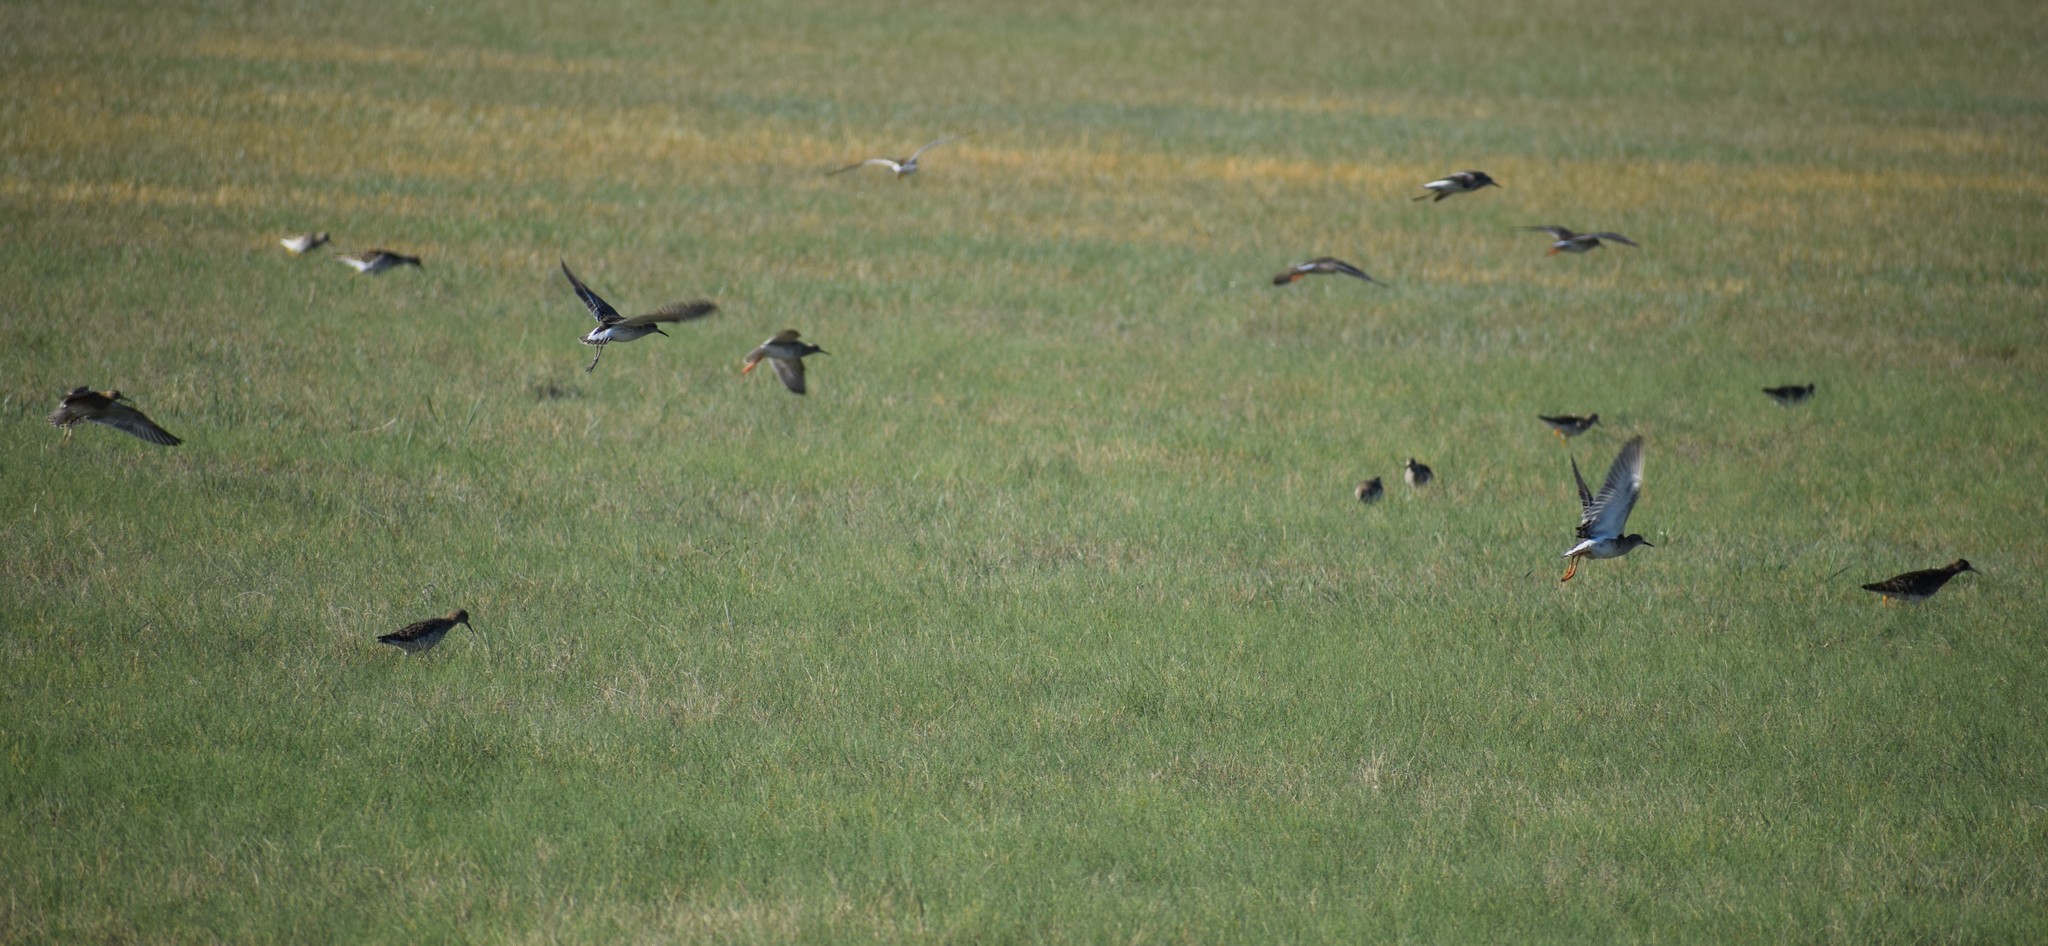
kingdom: Animalia
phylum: Chordata
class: Aves
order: Charadriiformes
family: Scolopacidae
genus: Calidris
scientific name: Calidris pugnax
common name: Ruff
